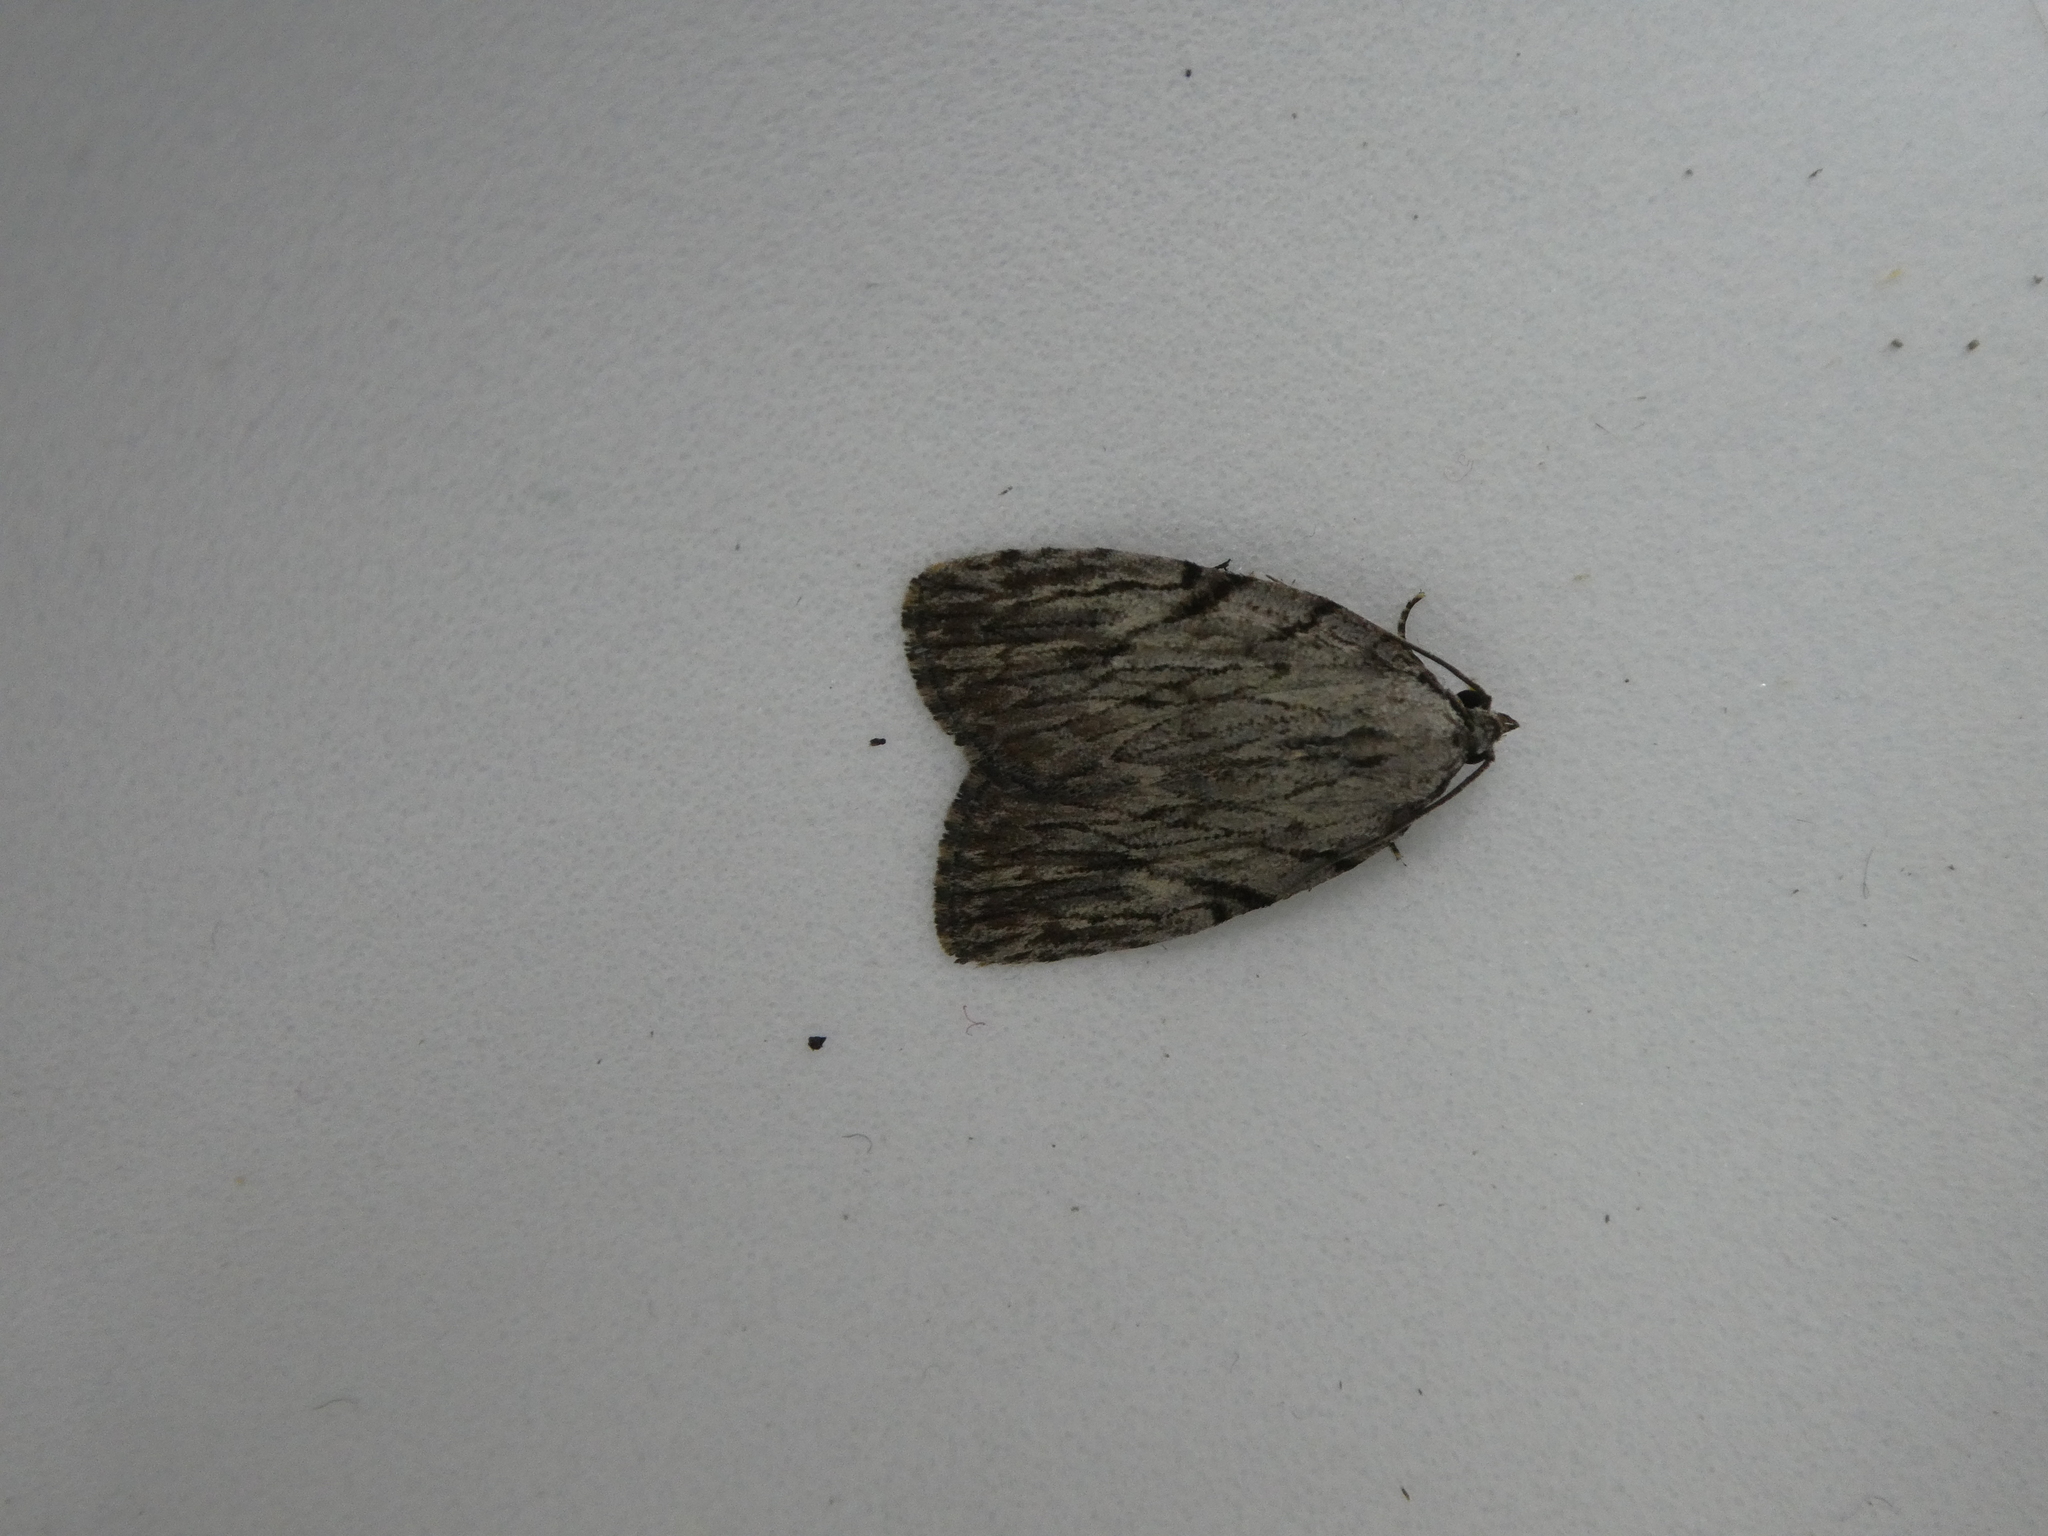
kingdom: Animalia
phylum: Arthropoda
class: Insecta
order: Lepidoptera
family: Noctuidae
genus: Balsa
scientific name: Balsa tristrigella
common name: Three-lined balsa moth
